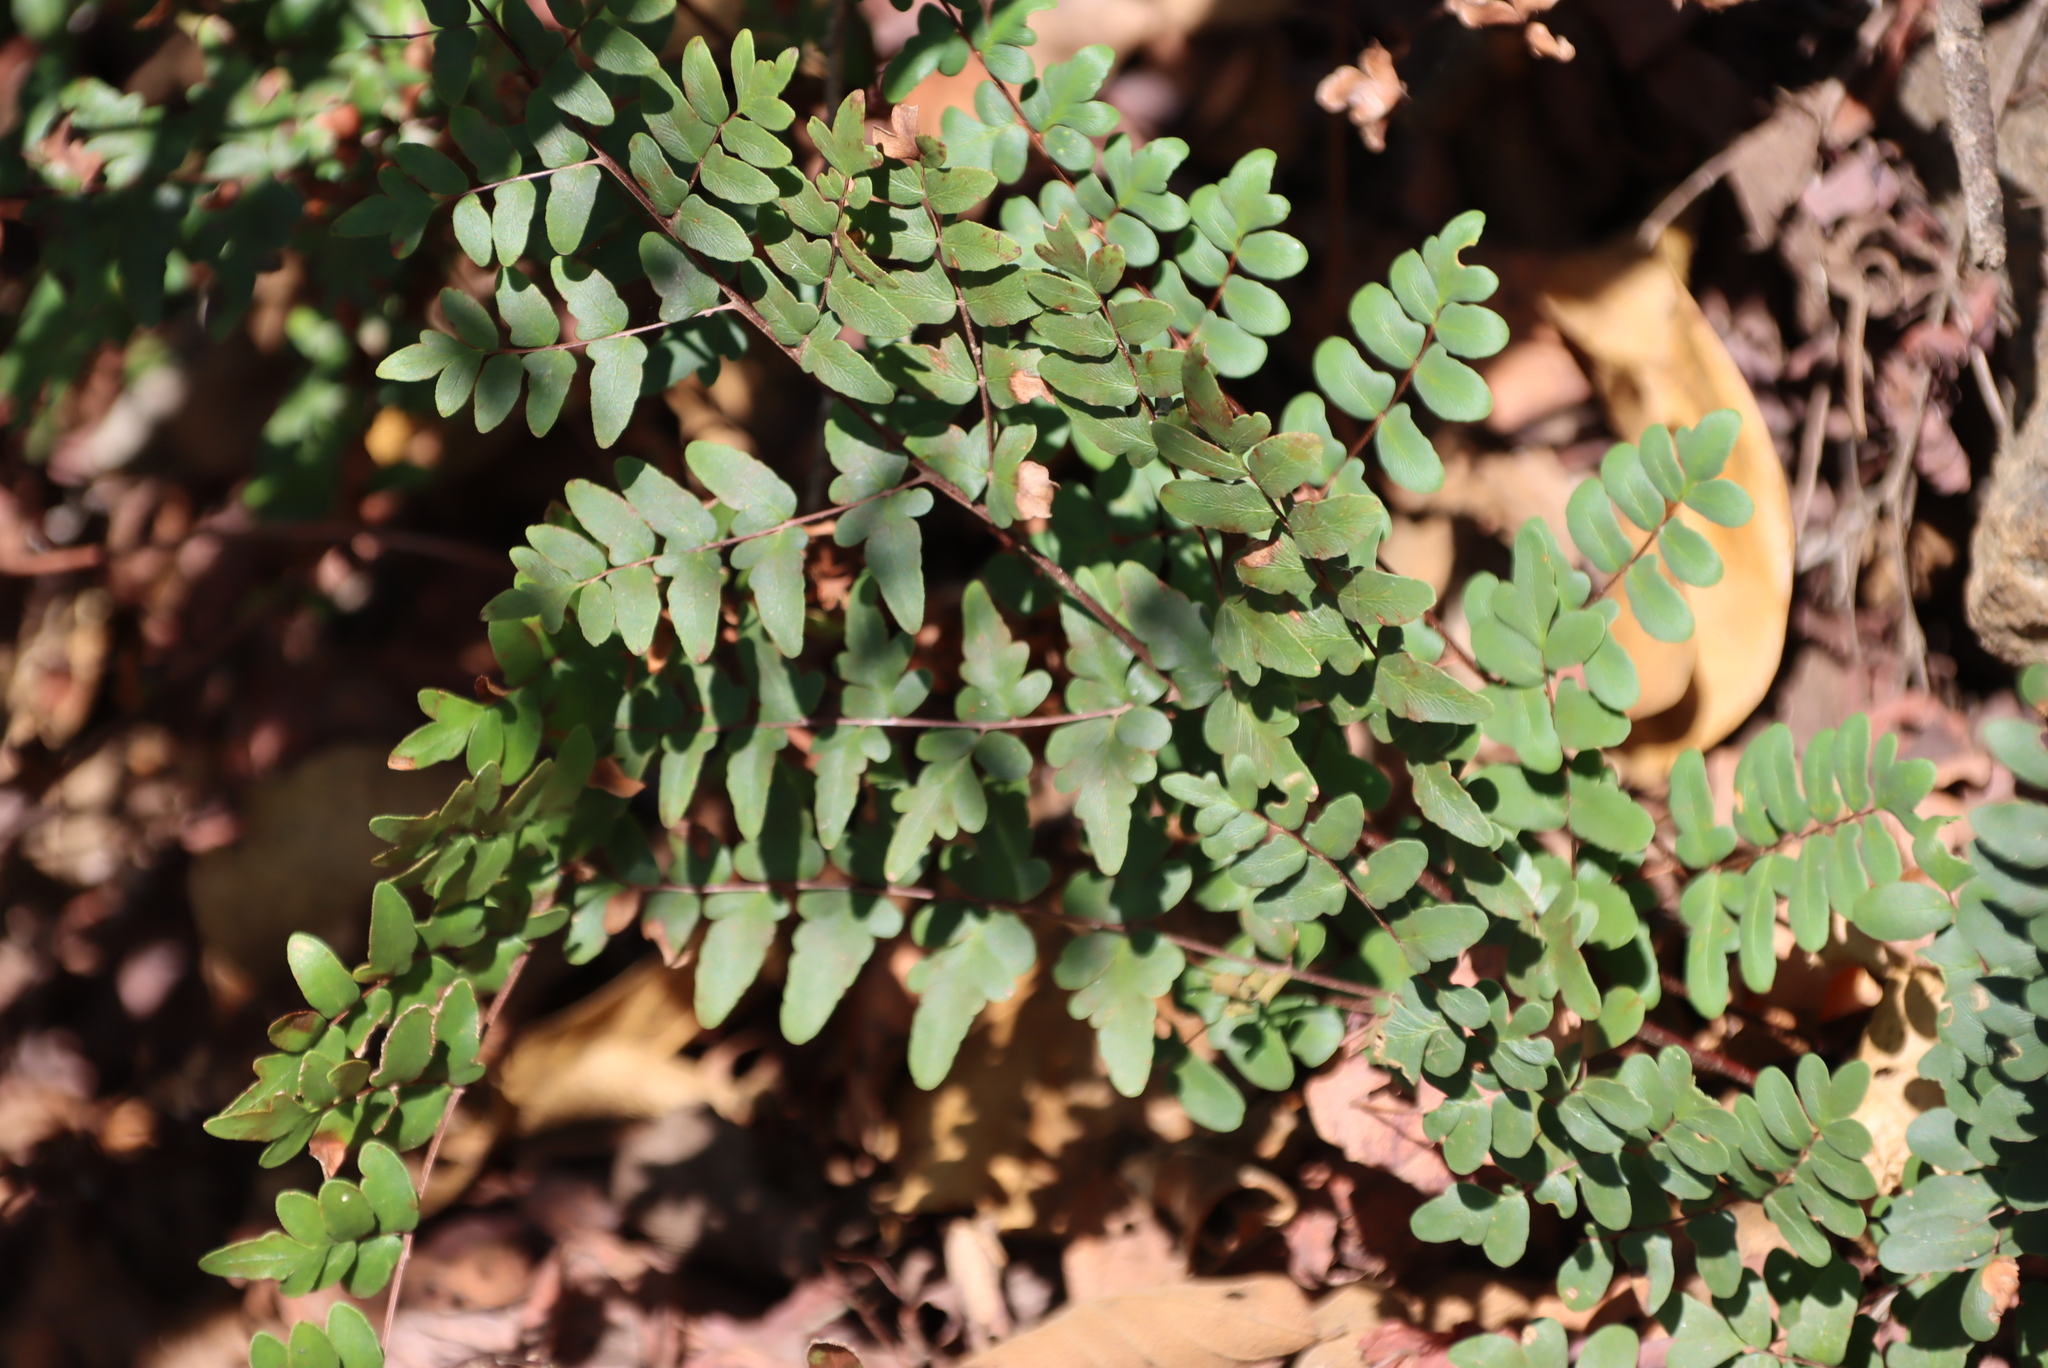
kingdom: Plantae
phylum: Tracheophyta
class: Polypodiopsida
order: Polypodiales
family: Pteridaceae
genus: Cheilanthes
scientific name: Cheilanthes viridis
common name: Green cliffbrake
